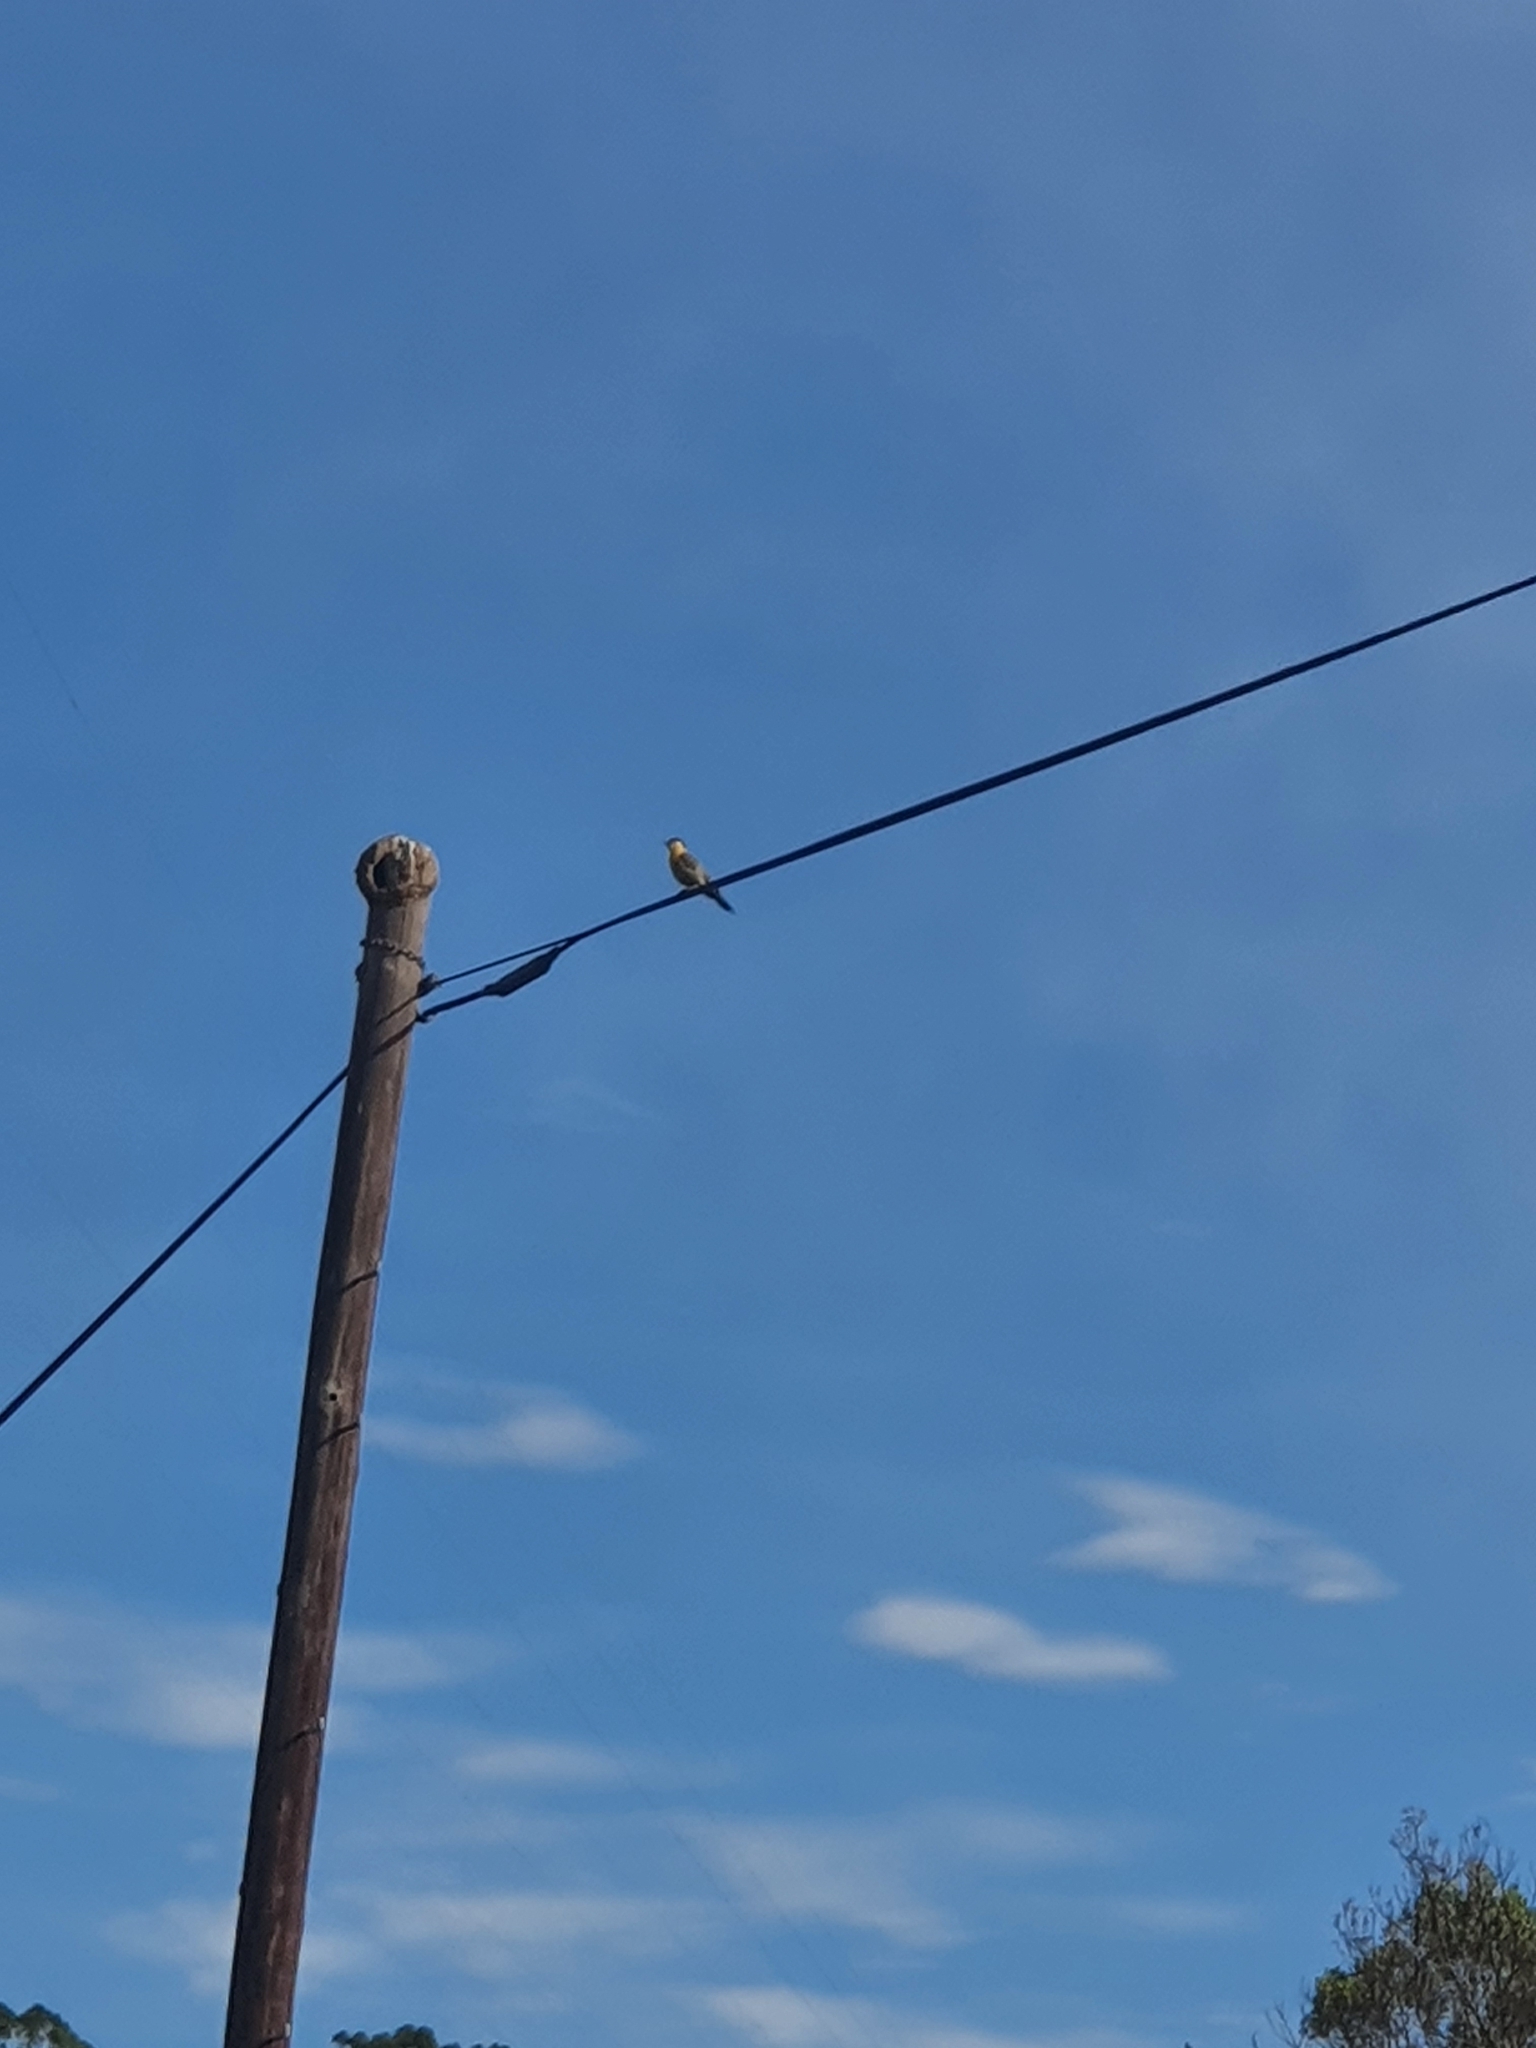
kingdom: Animalia
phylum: Chordata
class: Aves
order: Piciformes
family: Picidae
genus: Colaptes
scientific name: Colaptes campestris
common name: Campo flicker
